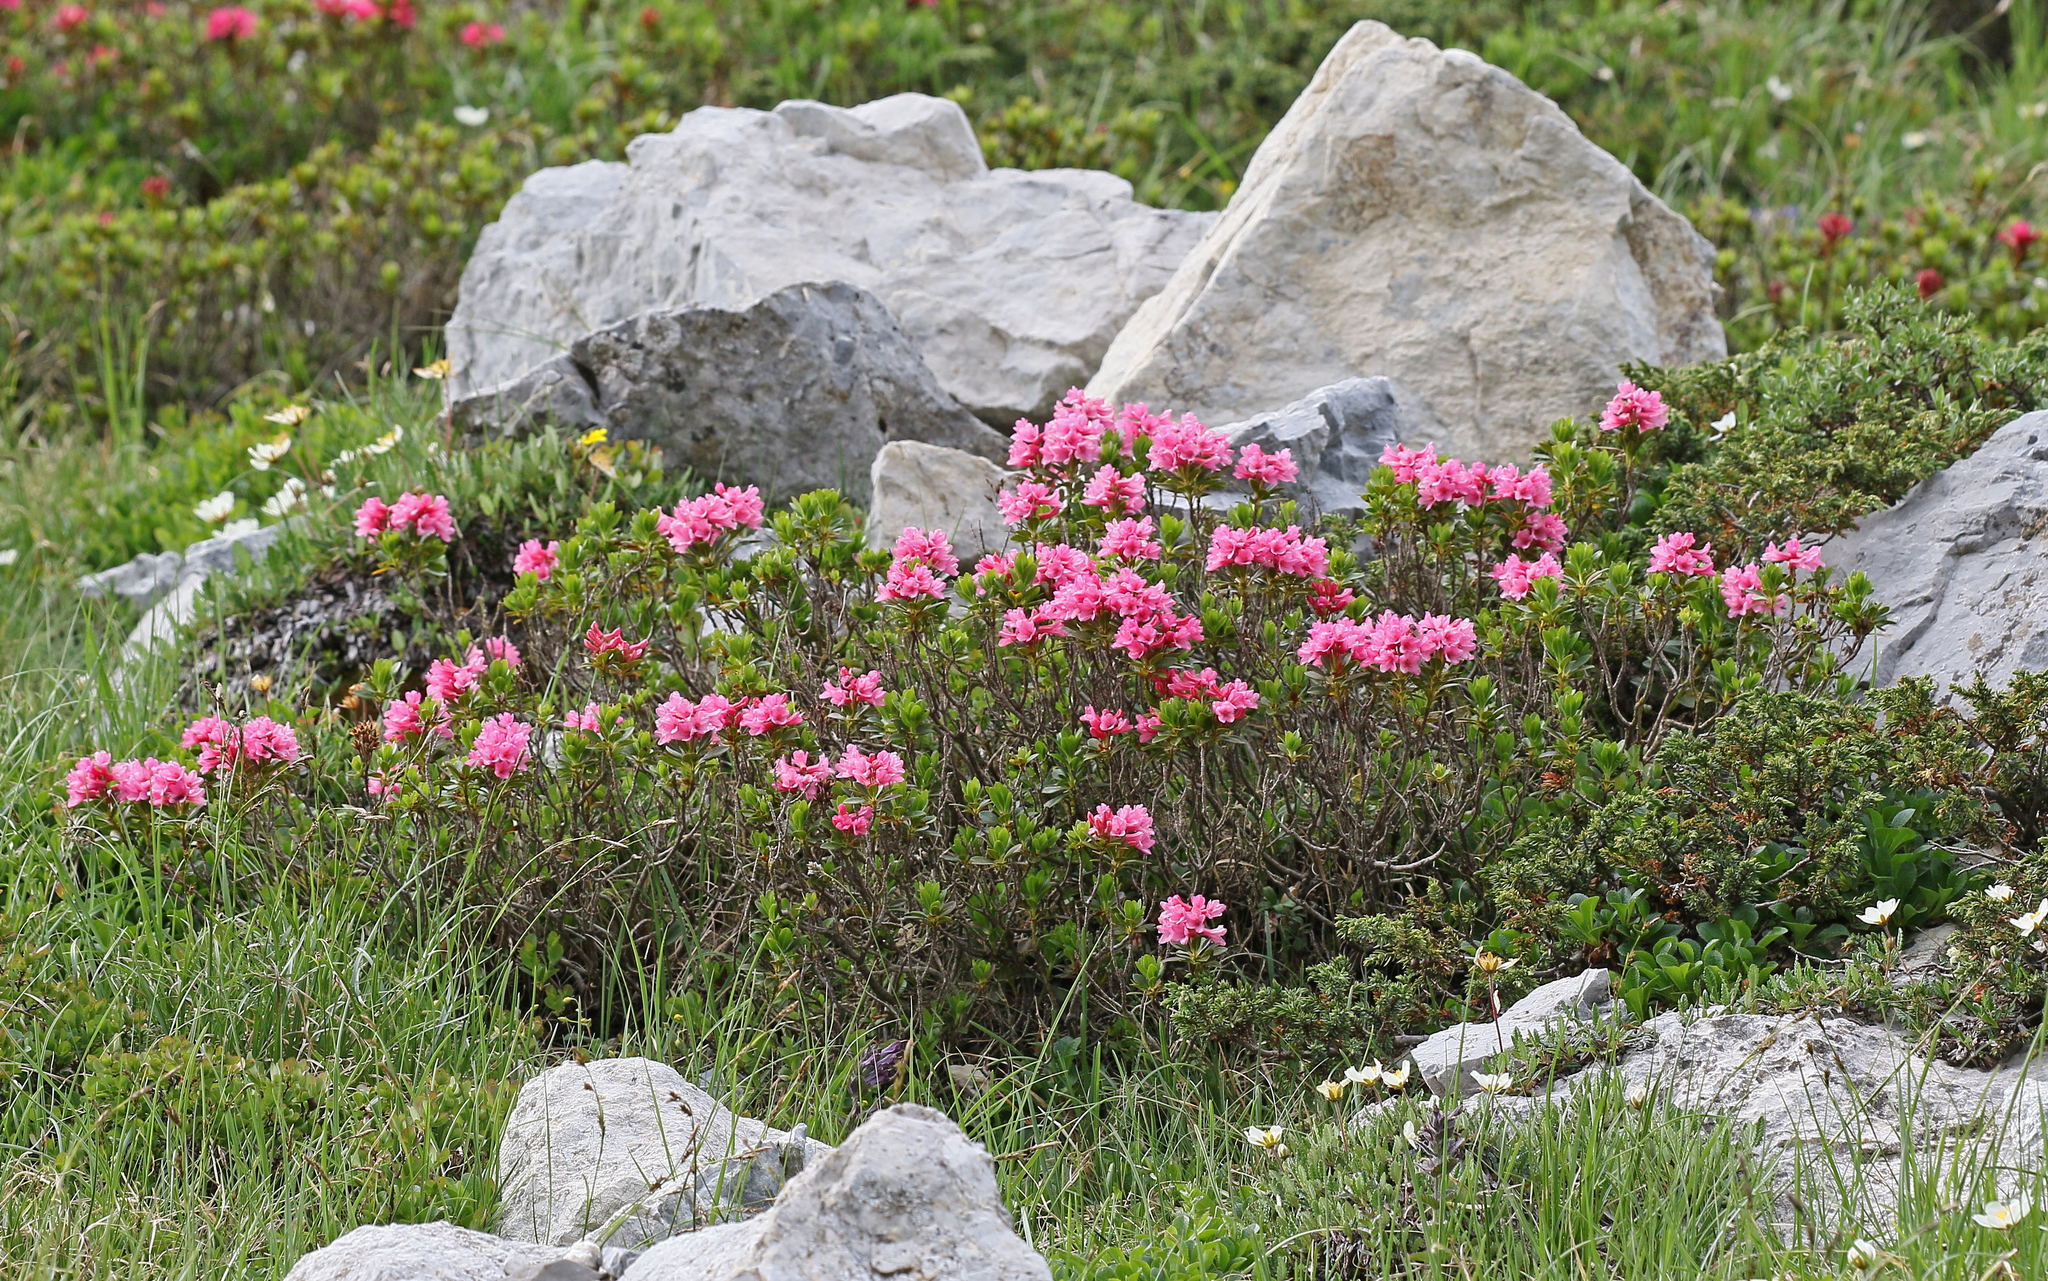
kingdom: Plantae
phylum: Tracheophyta
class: Magnoliopsida
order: Ericales
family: Ericaceae
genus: Rhododendron
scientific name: Rhododendron ferrugineum
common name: Alpenrose
